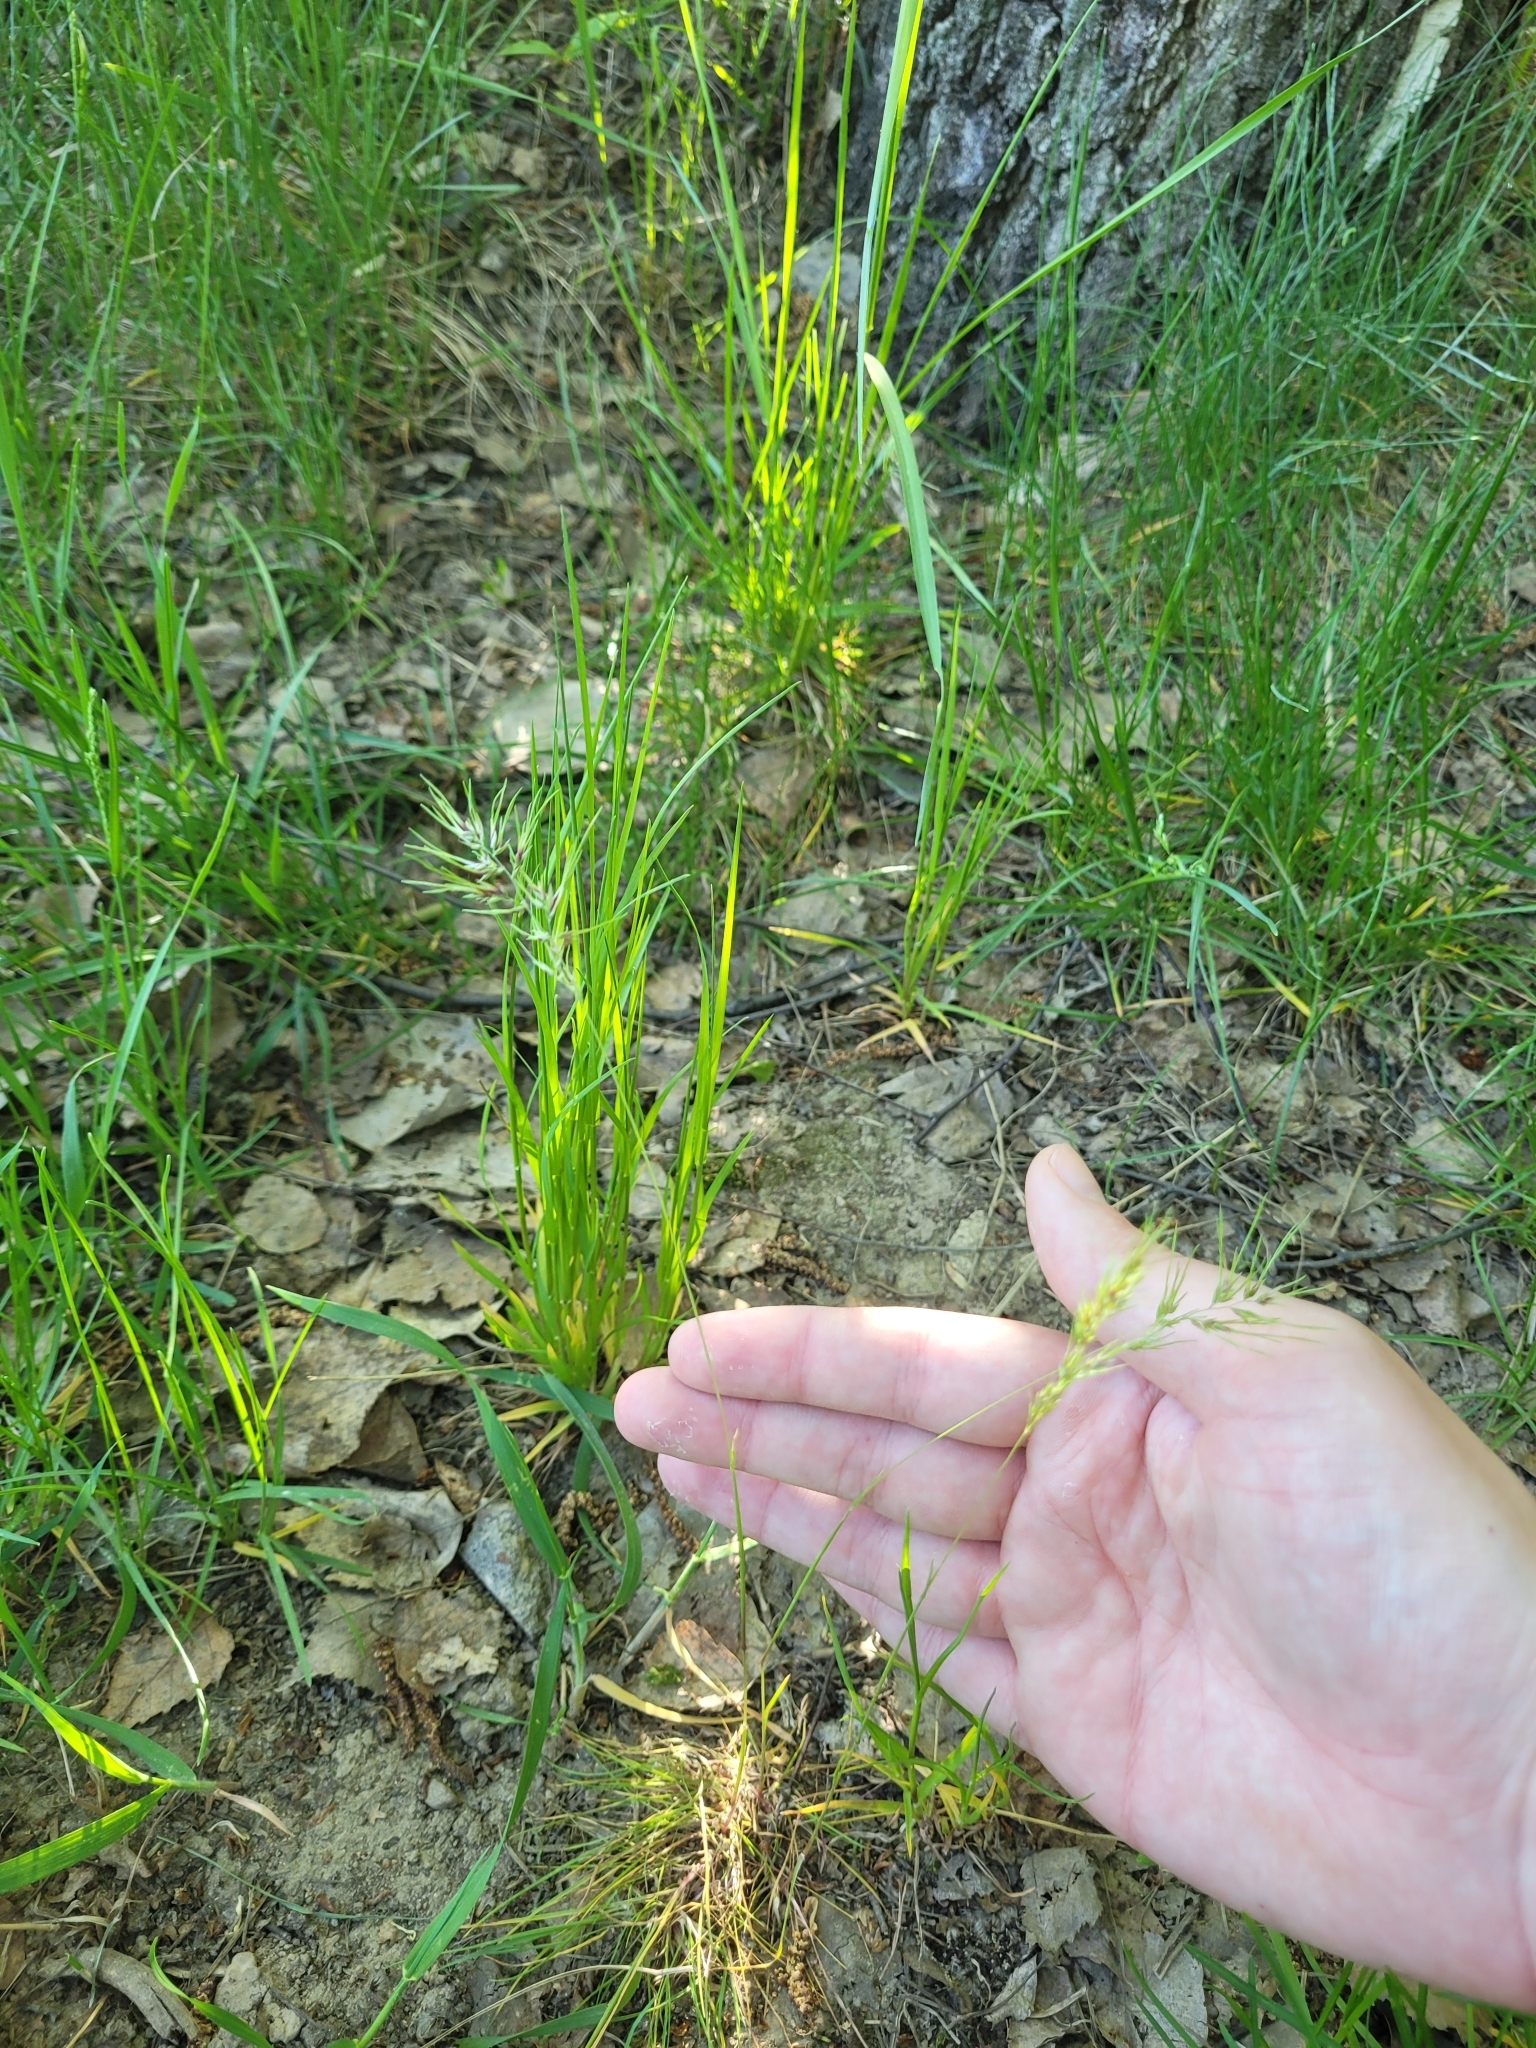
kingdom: Plantae
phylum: Tracheophyta
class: Liliopsida
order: Poales
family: Poaceae
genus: Poa
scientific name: Poa bulbosa
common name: Bulbous bluegrass
